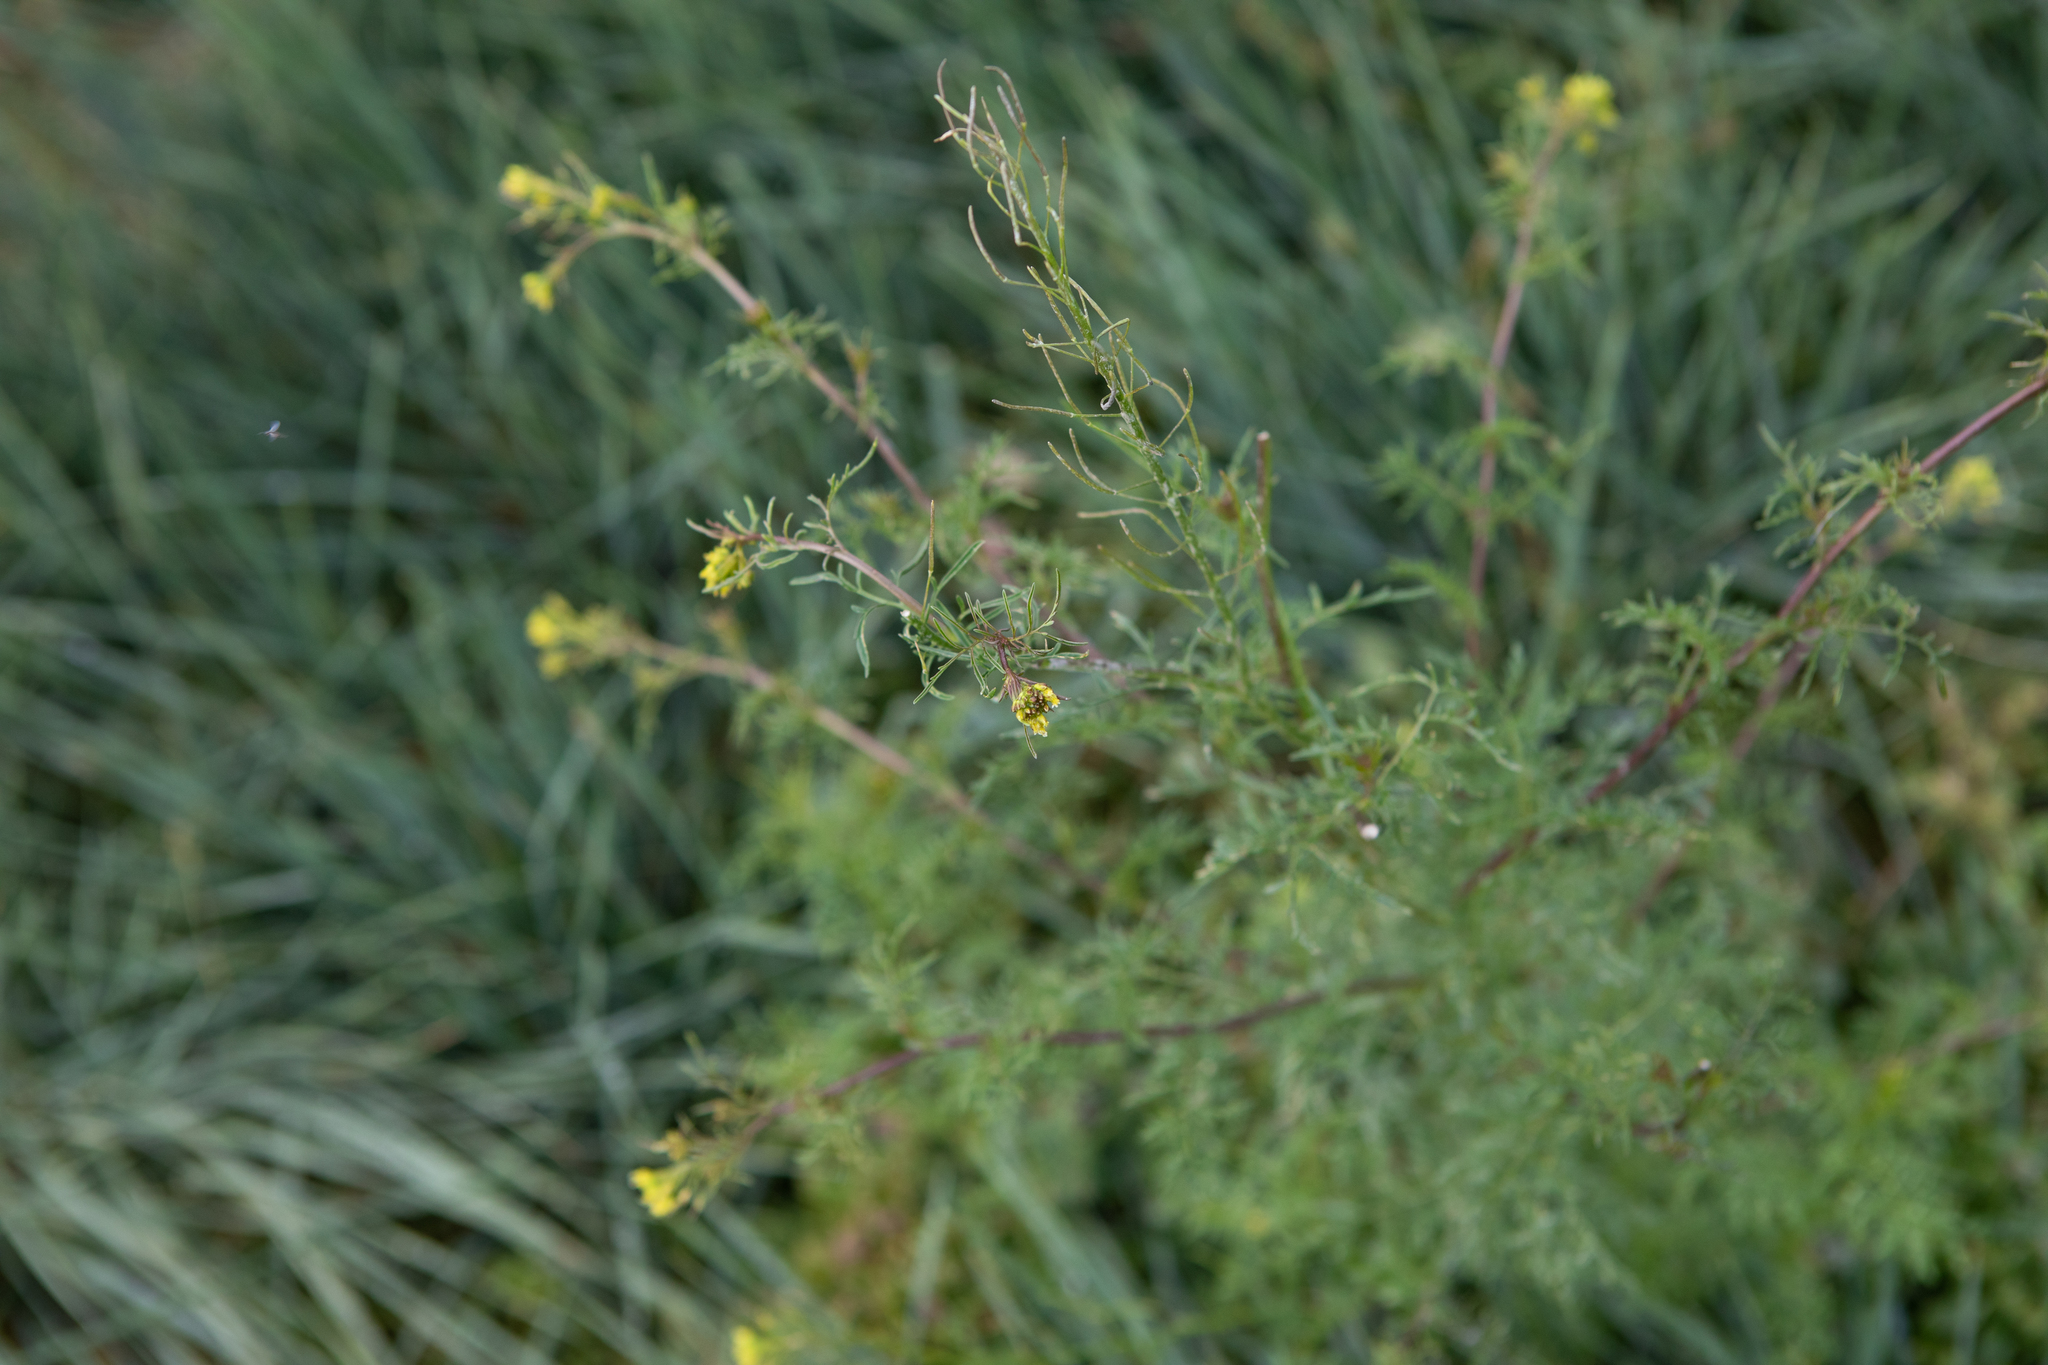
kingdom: Plantae
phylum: Tracheophyta
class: Magnoliopsida
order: Brassicales
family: Brassicaceae
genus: Descurainia
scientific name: Descurainia sophia
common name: Flixweed
